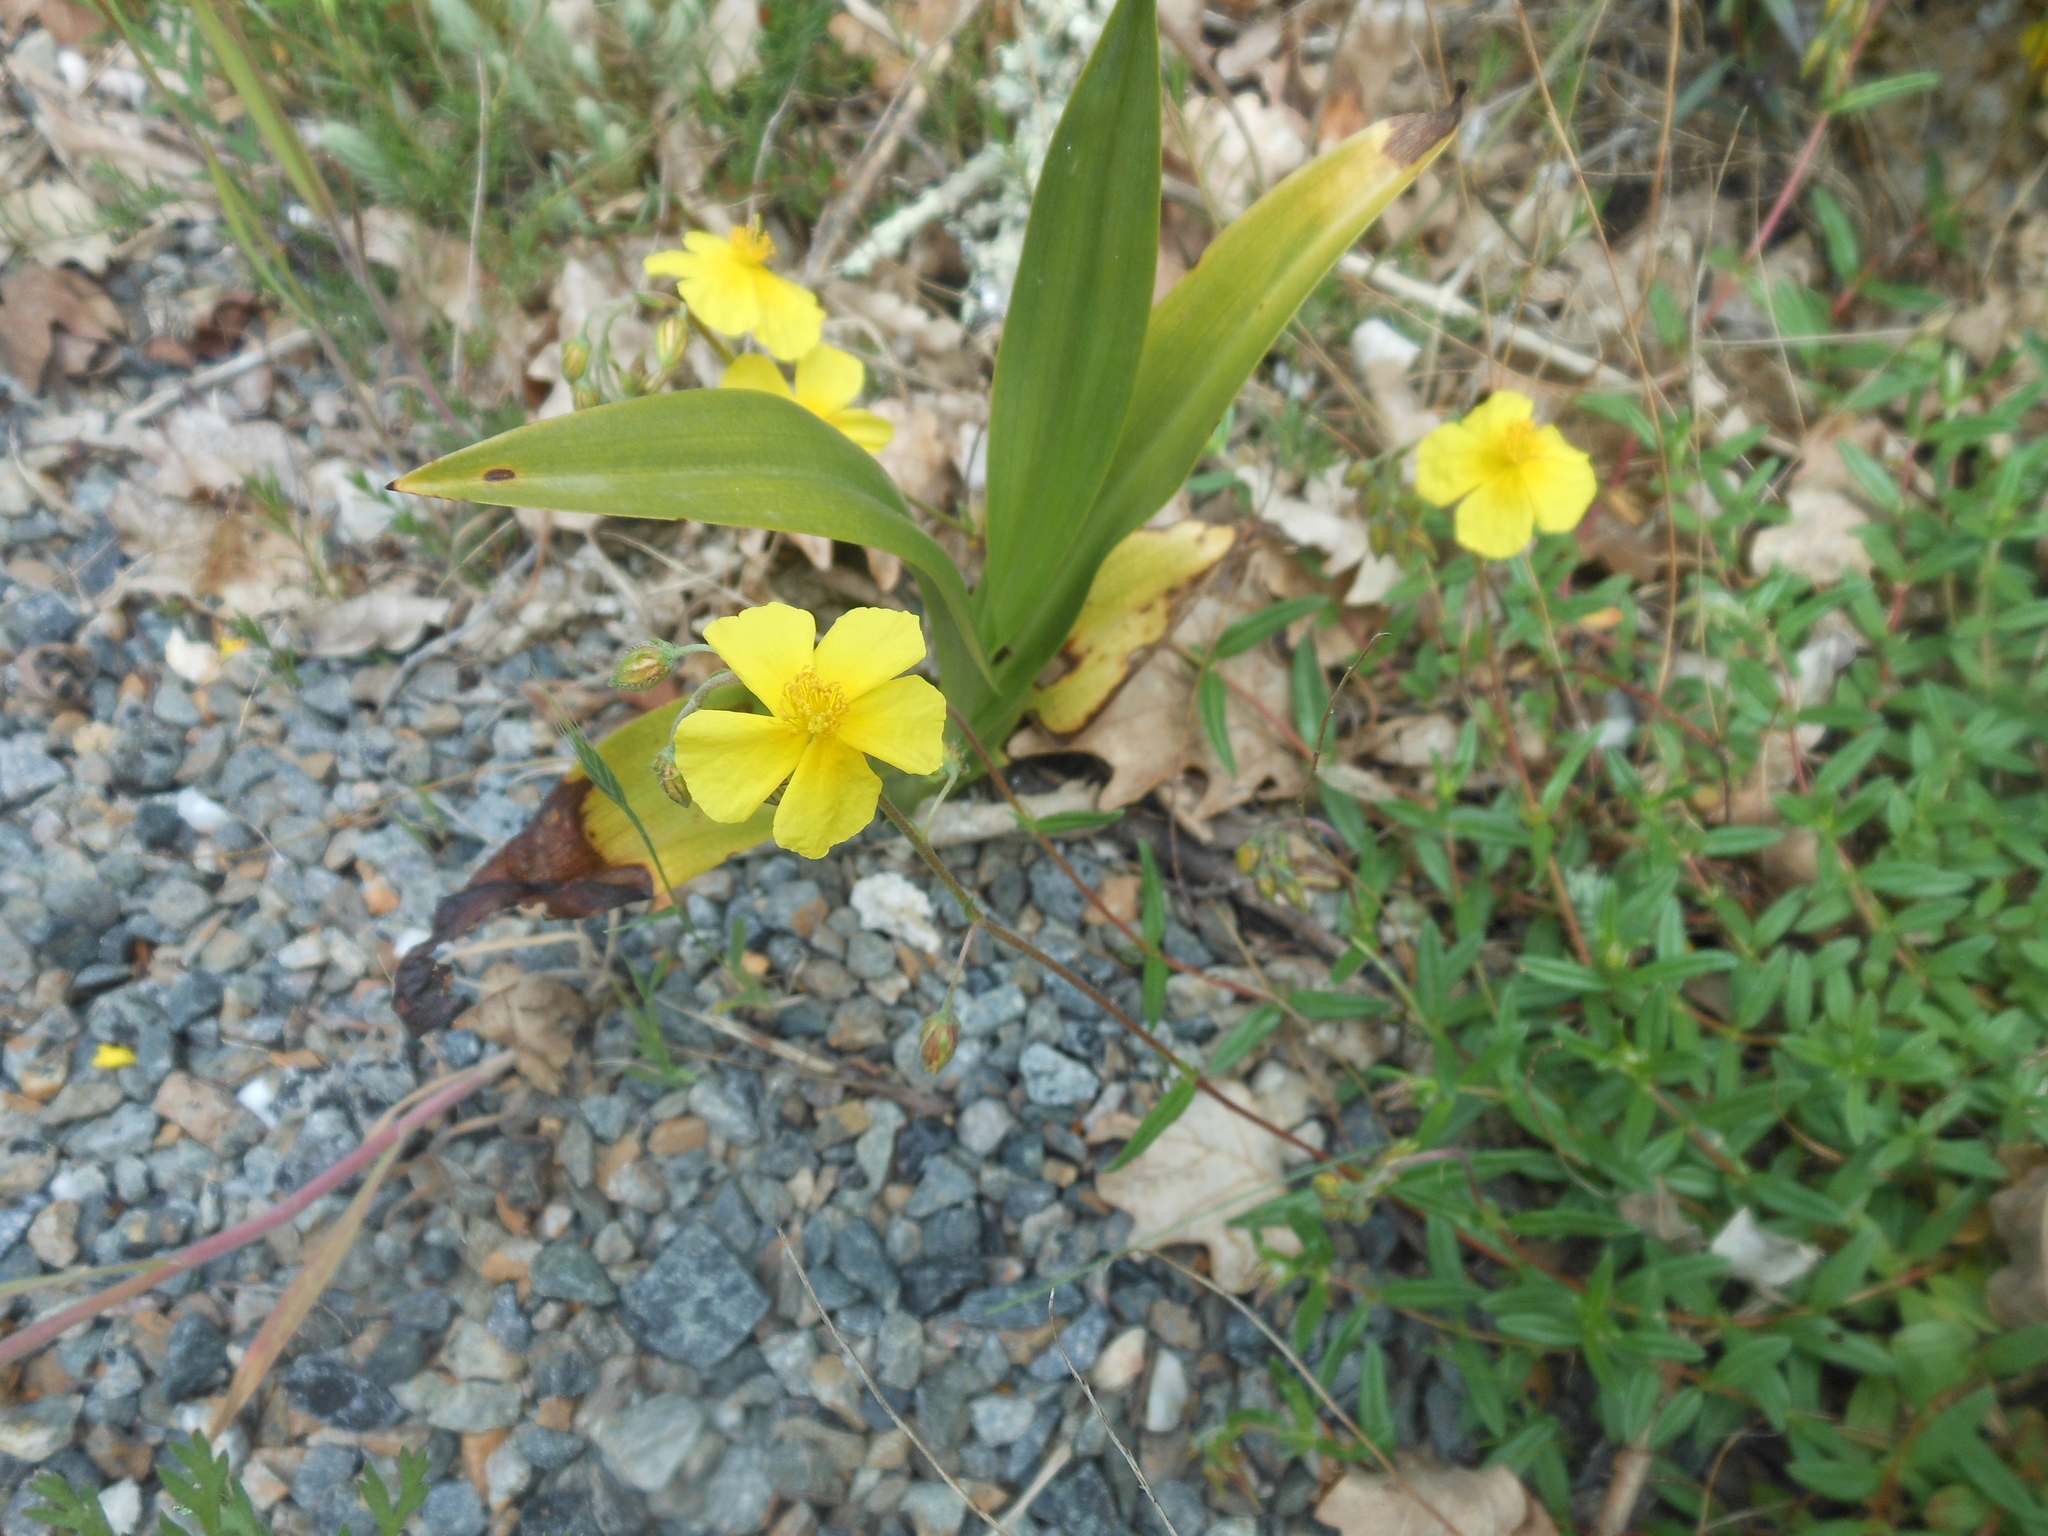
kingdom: Plantae
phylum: Tracheophyta
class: Magnoliopsida
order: Malvales
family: Cistaceae
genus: Helianthemum
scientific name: Helianthemum nummularium
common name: Common rock-rose
